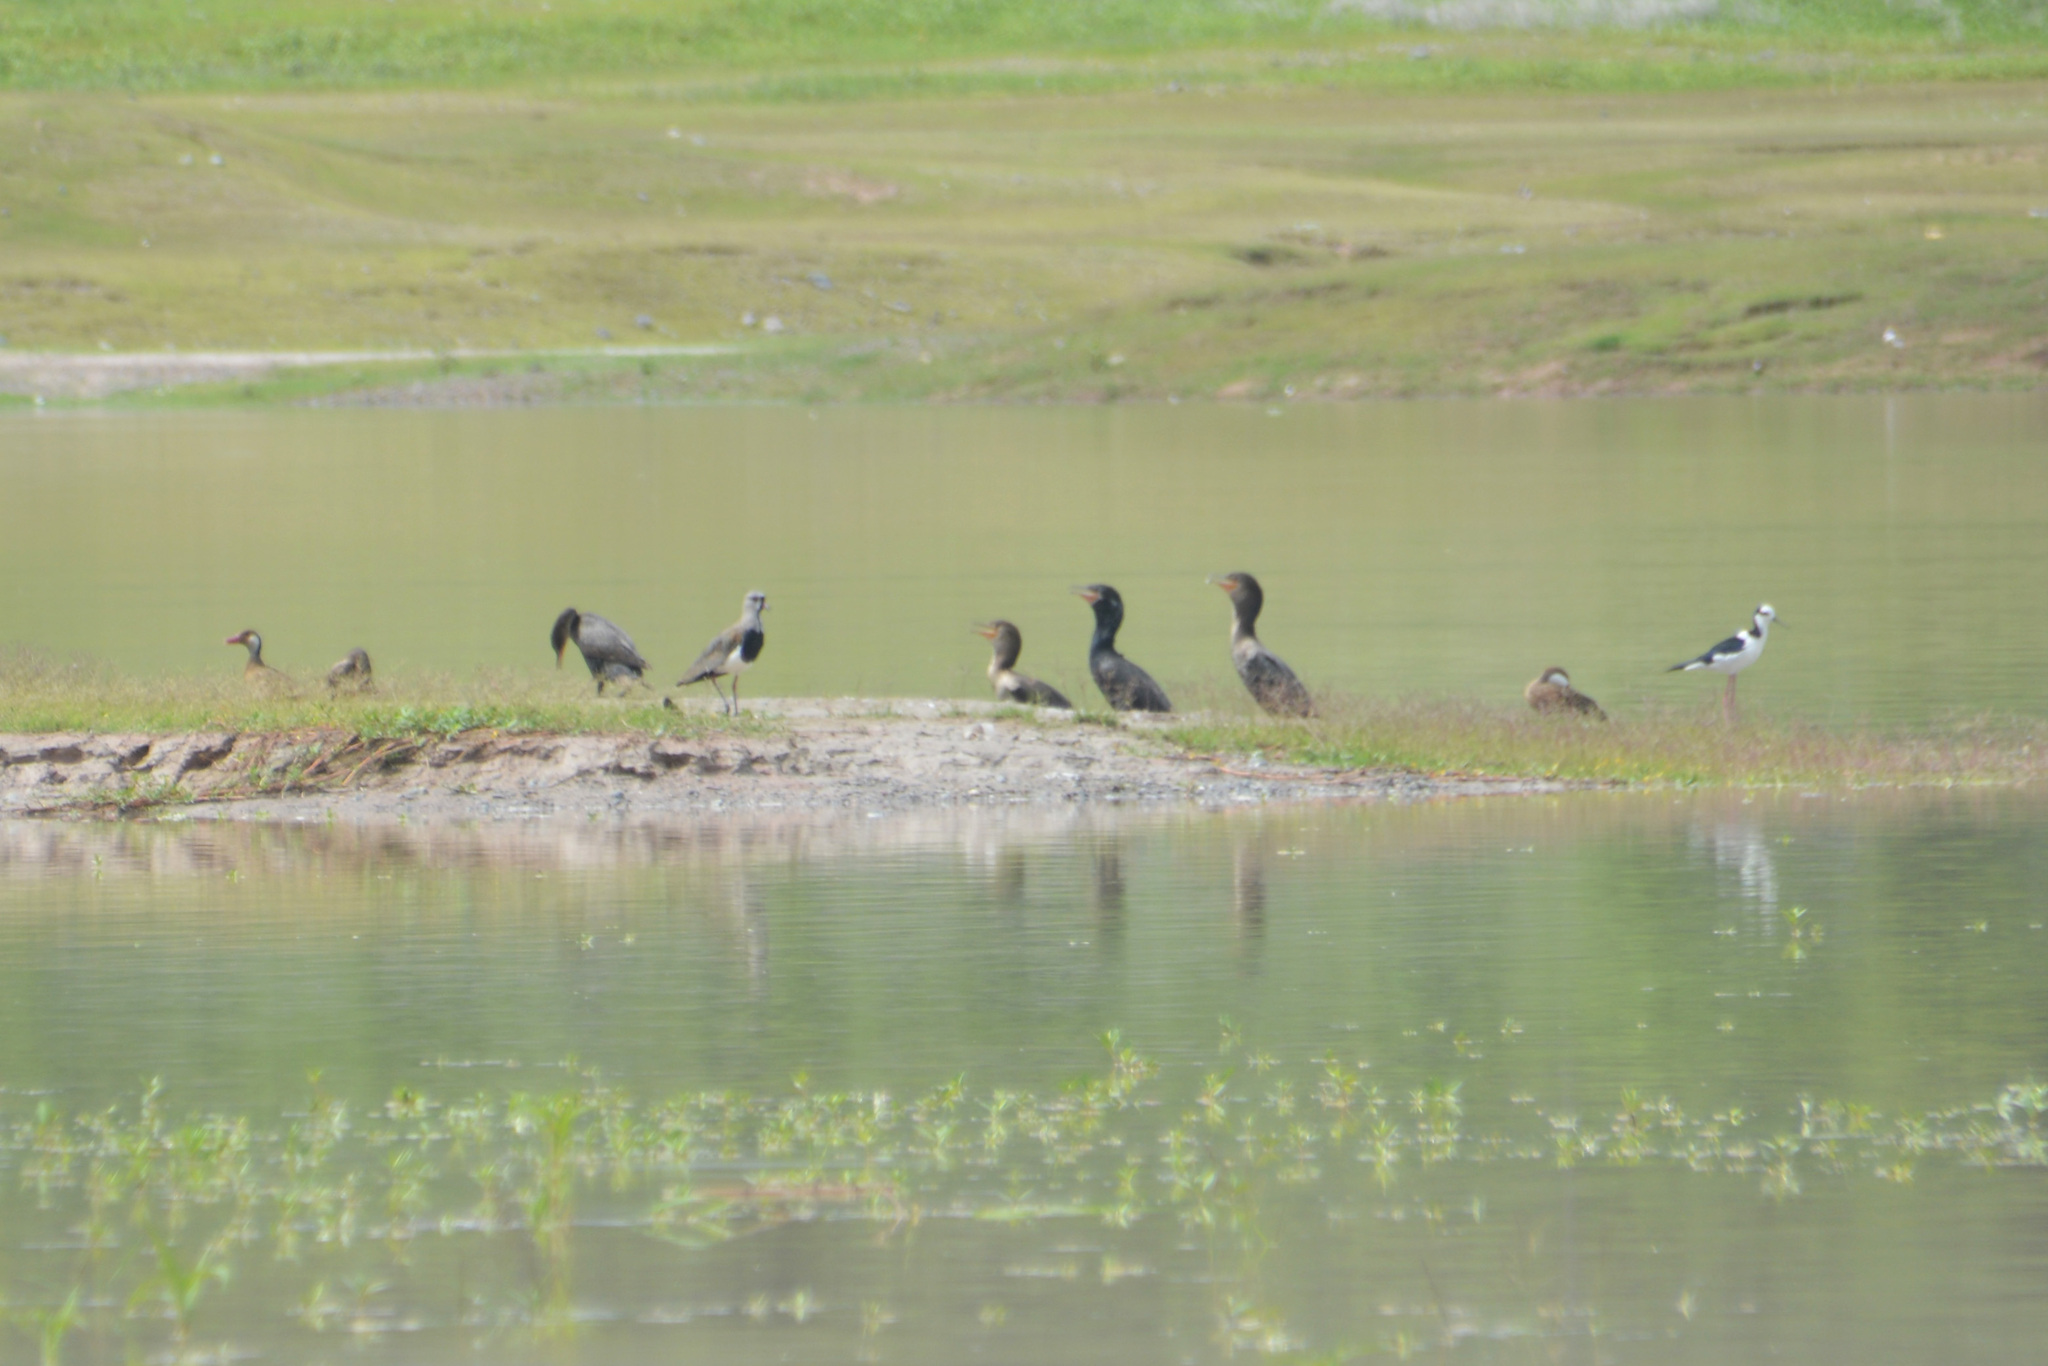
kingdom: Animalia
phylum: Chordata
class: Aves
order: Charadriiformes
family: Recurvirostridae
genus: Himantopus
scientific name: Himantopus mexicanus
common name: Black-necked stilt
